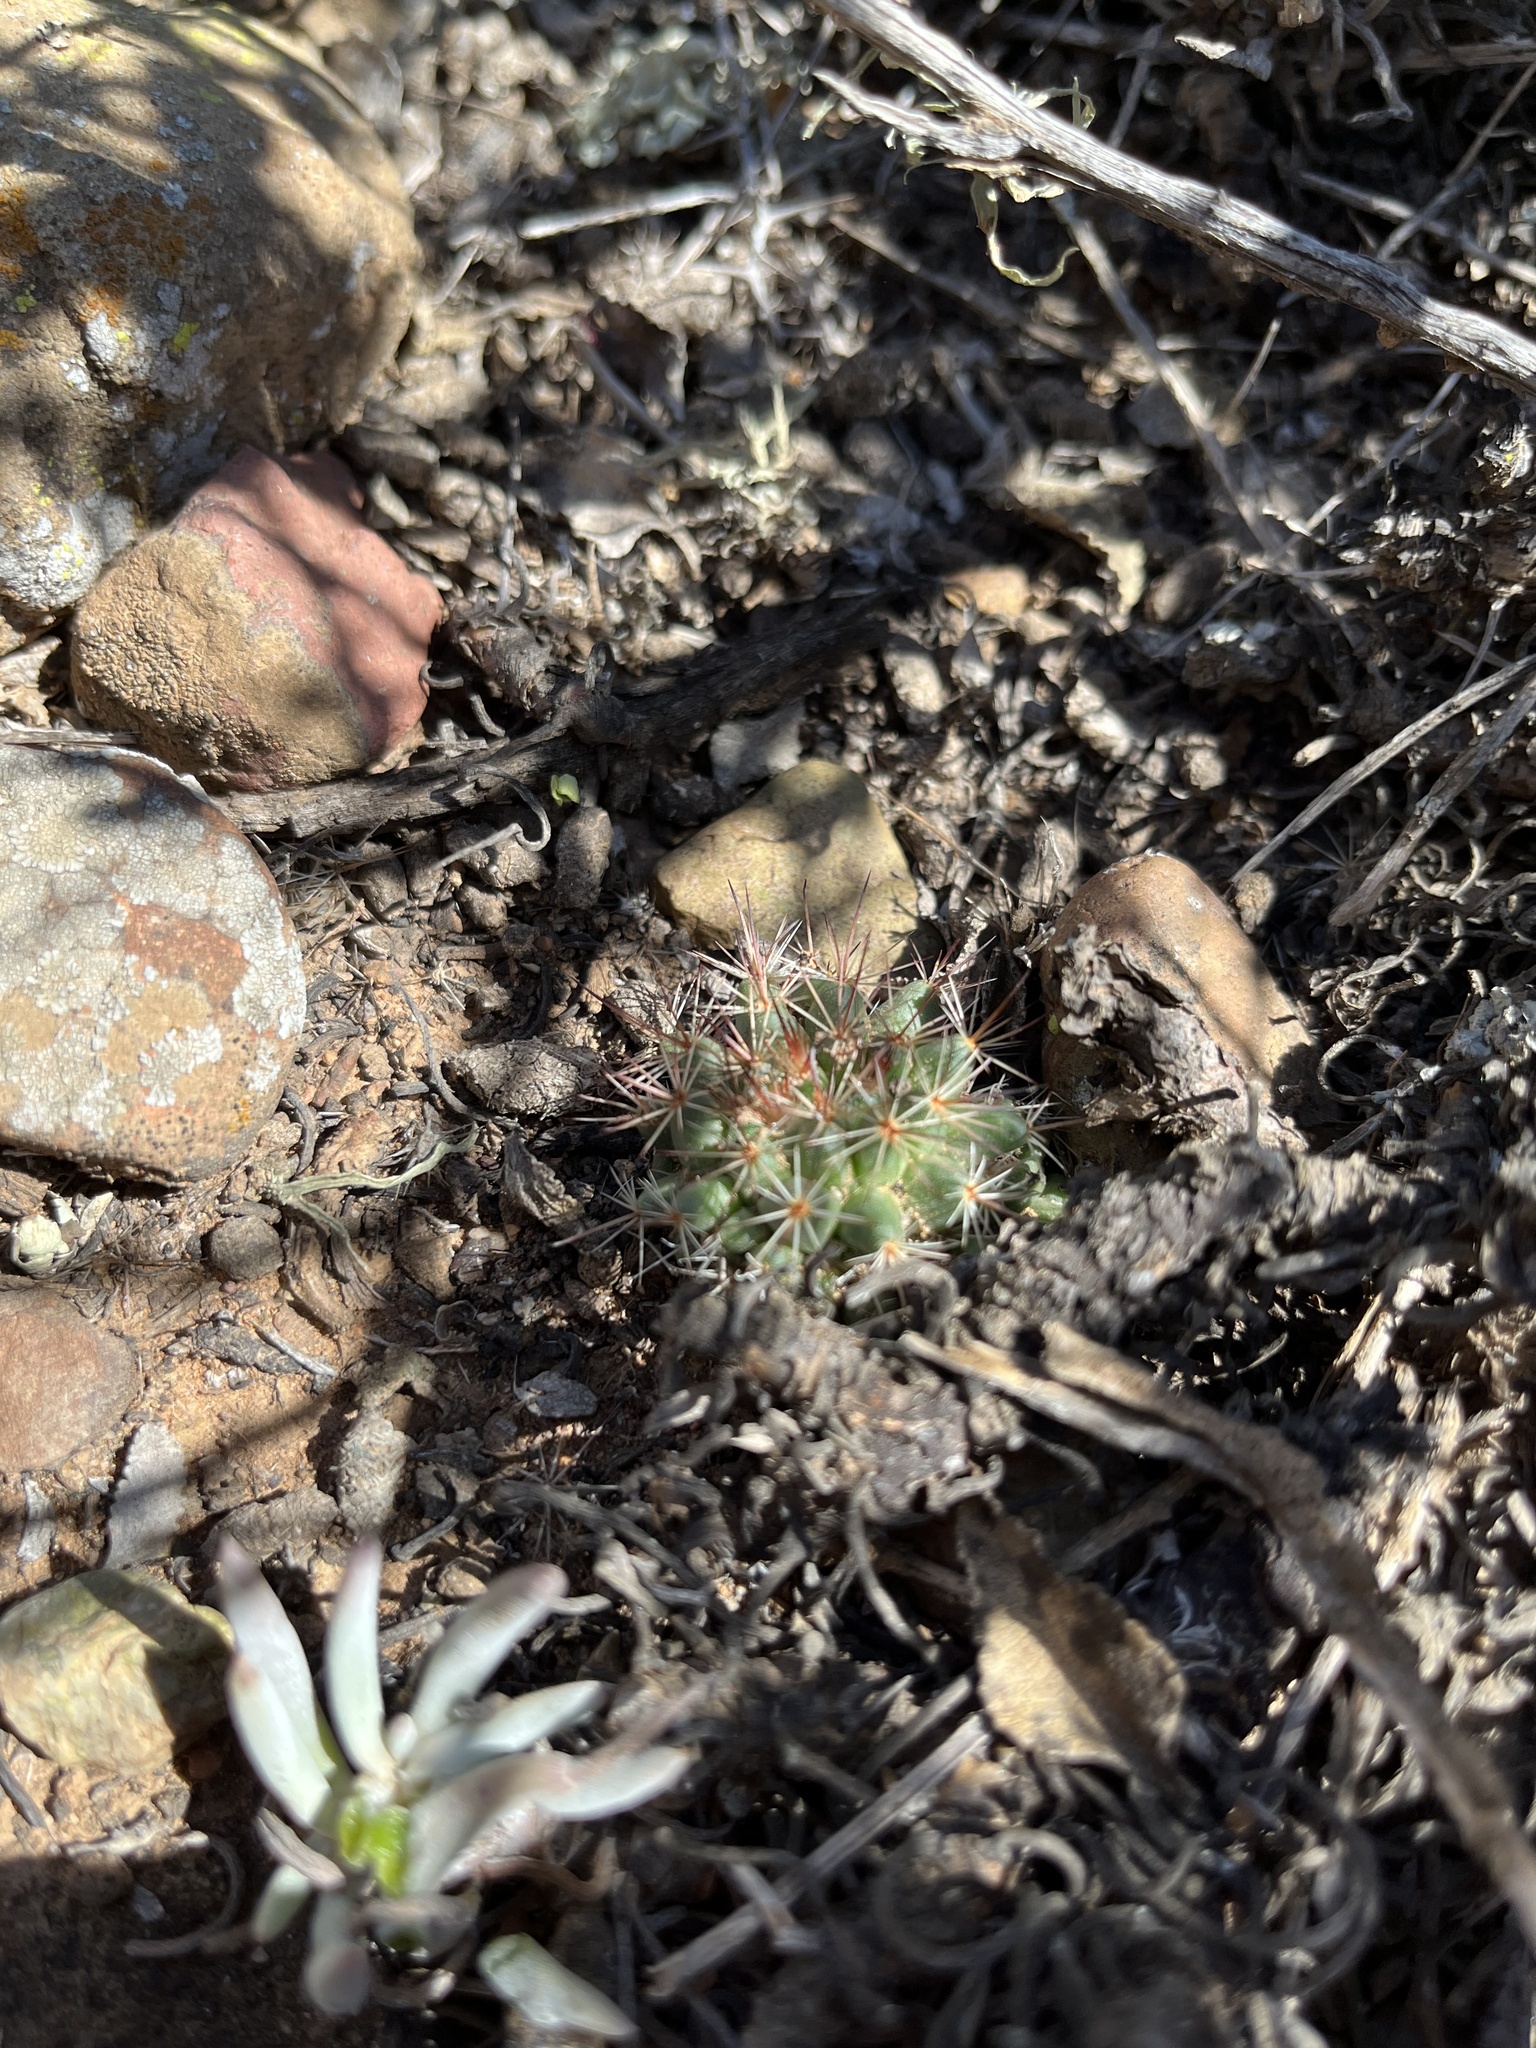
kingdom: Plantae
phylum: Tracheophyta
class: Magnoliopsida
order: Caryophyllales
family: Cactaceae
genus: Mammillaria
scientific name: Mammillaria brandegeei
